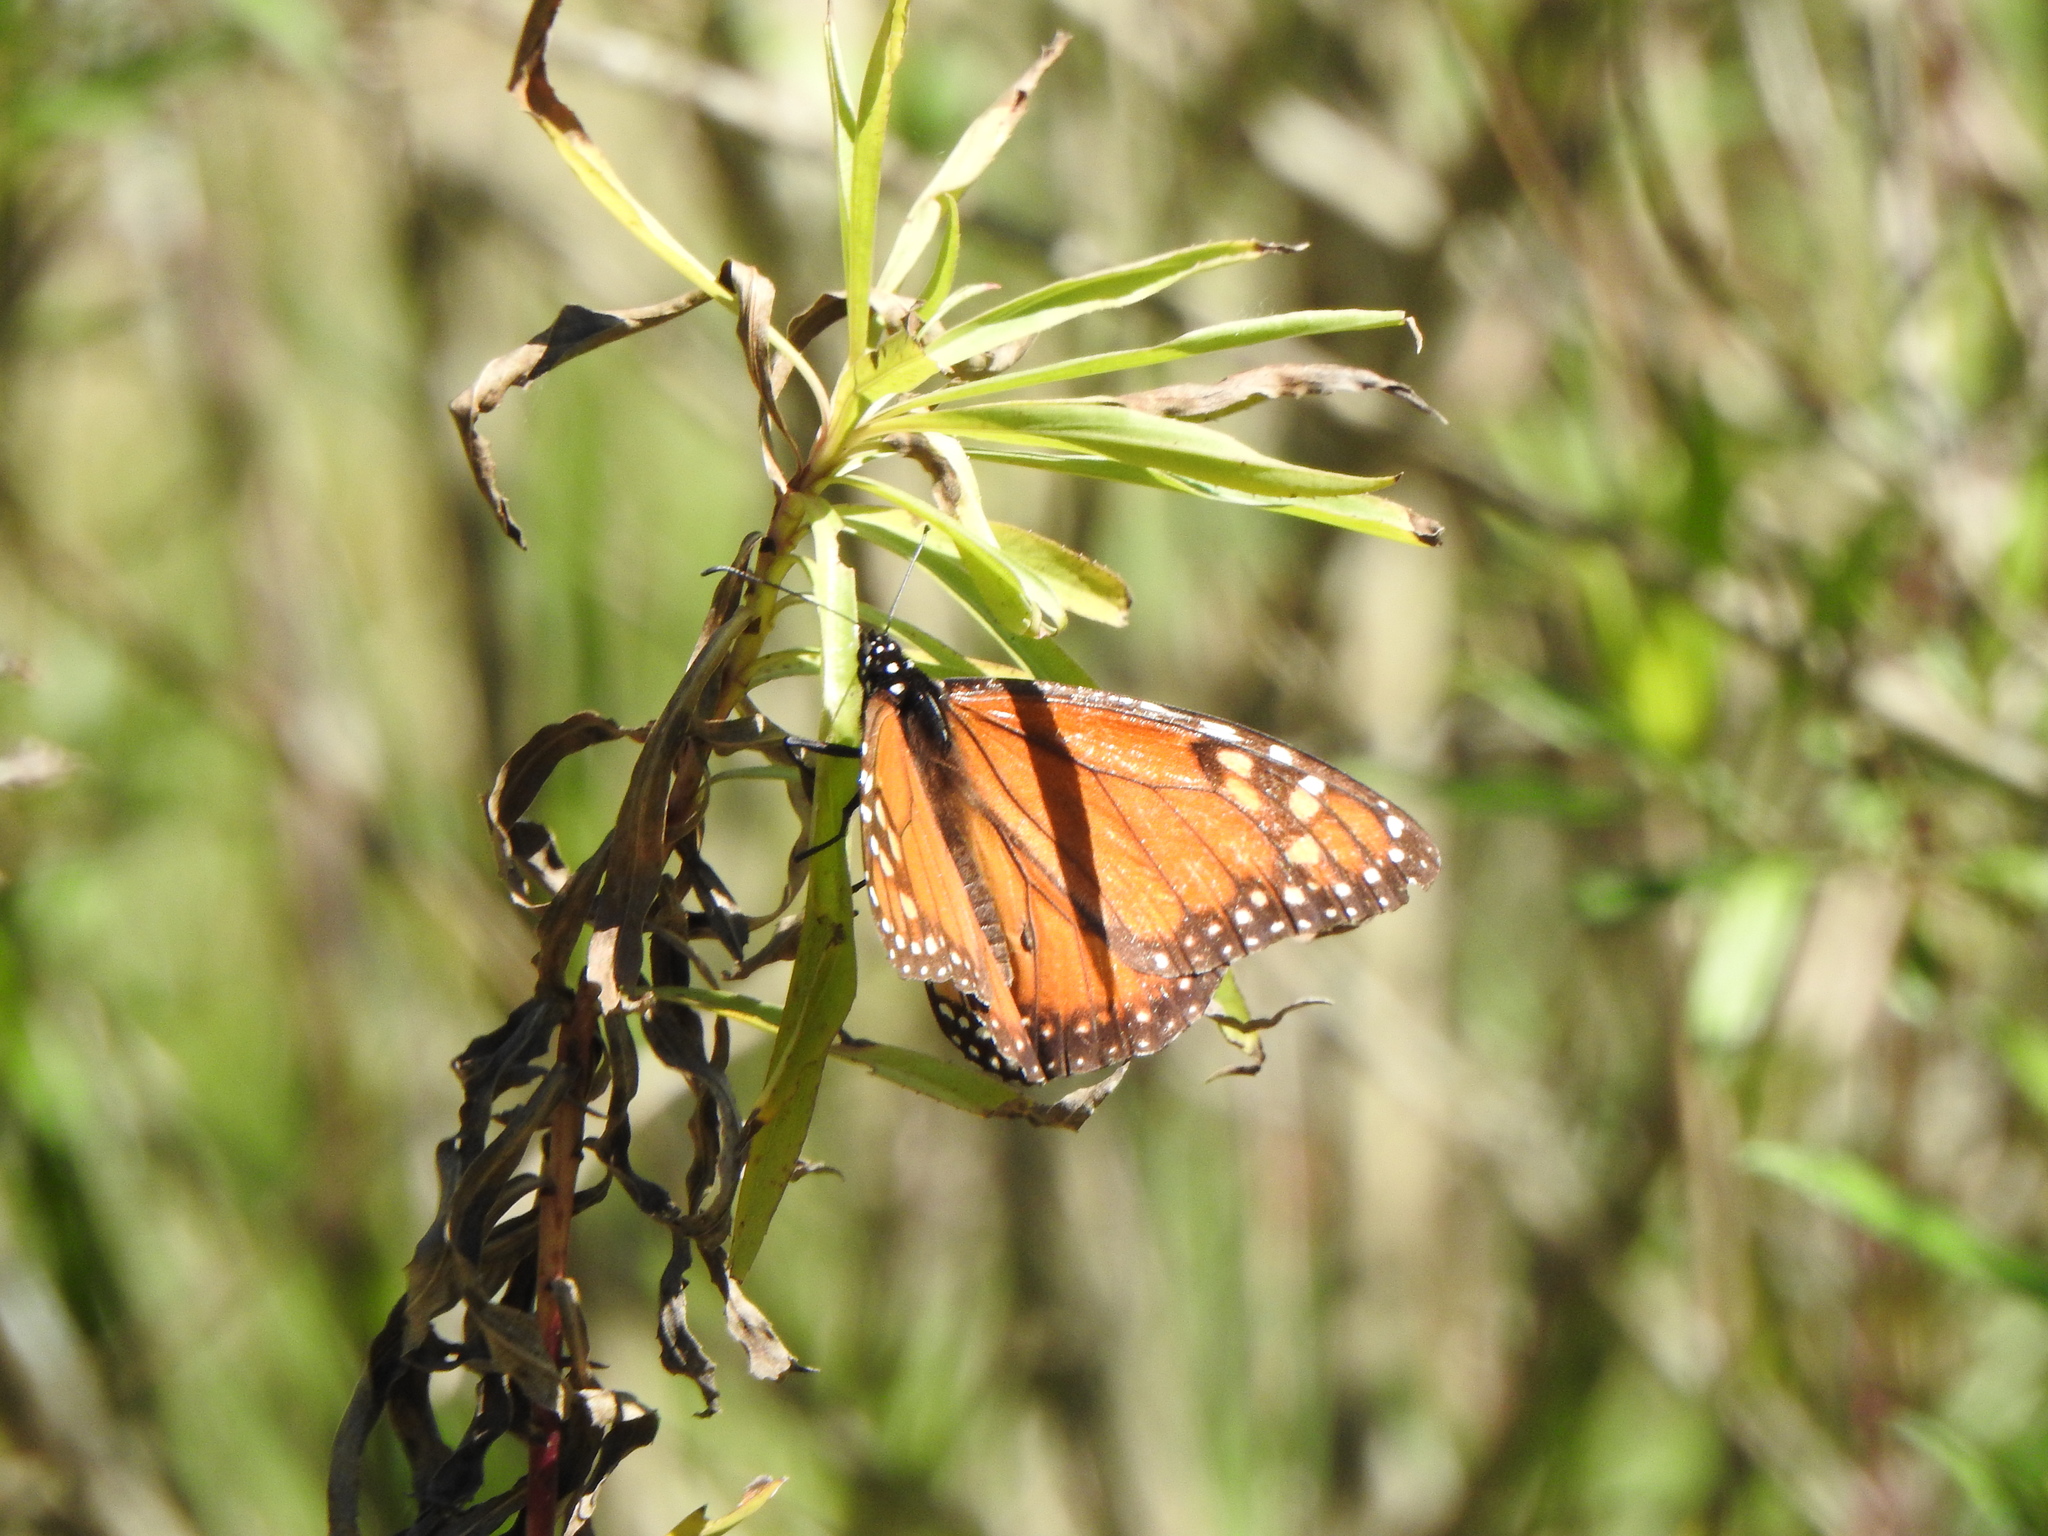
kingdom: Animalia
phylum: Arthropoda
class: Insecta
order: Lepidoptera
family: Nymphalidae
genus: Danaus
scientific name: Danaus erippus
